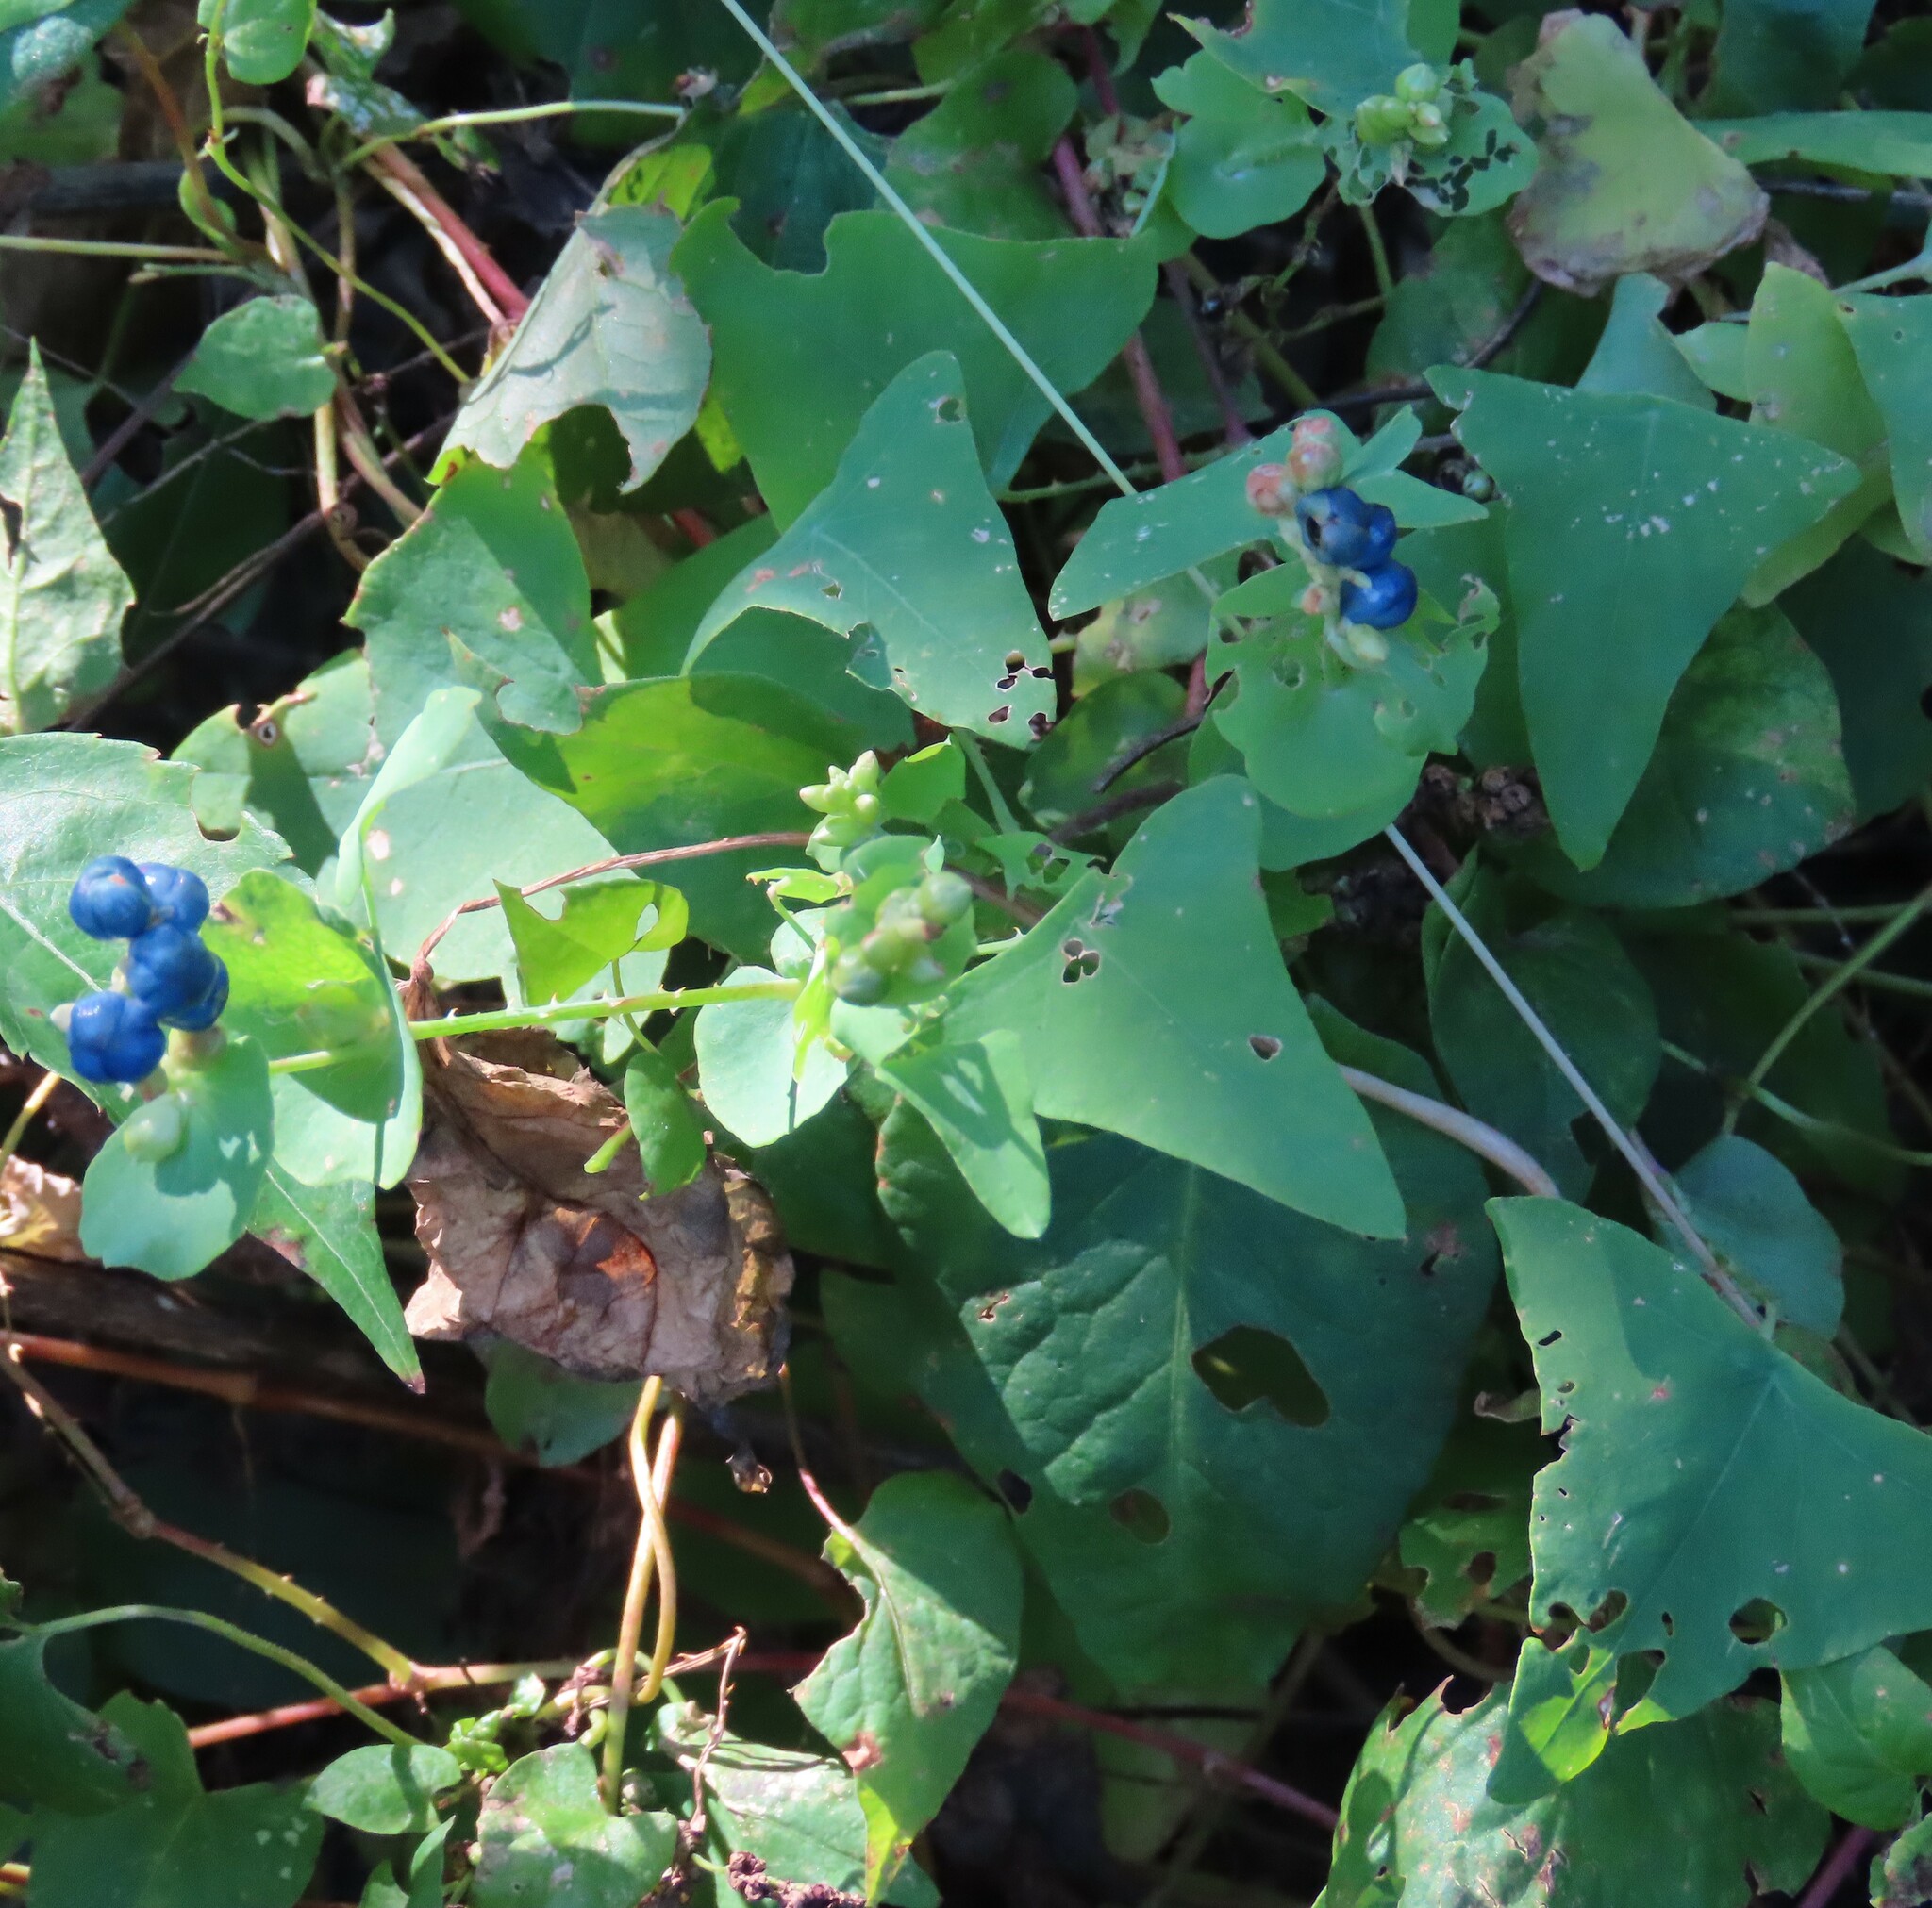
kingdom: Plantae
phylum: Tracheophyta
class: Magnoliopsida
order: Caryophyllales
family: Polygonaceae
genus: Persicaria
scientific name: Persicaria perfoliata
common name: Asiatic tearthumb
